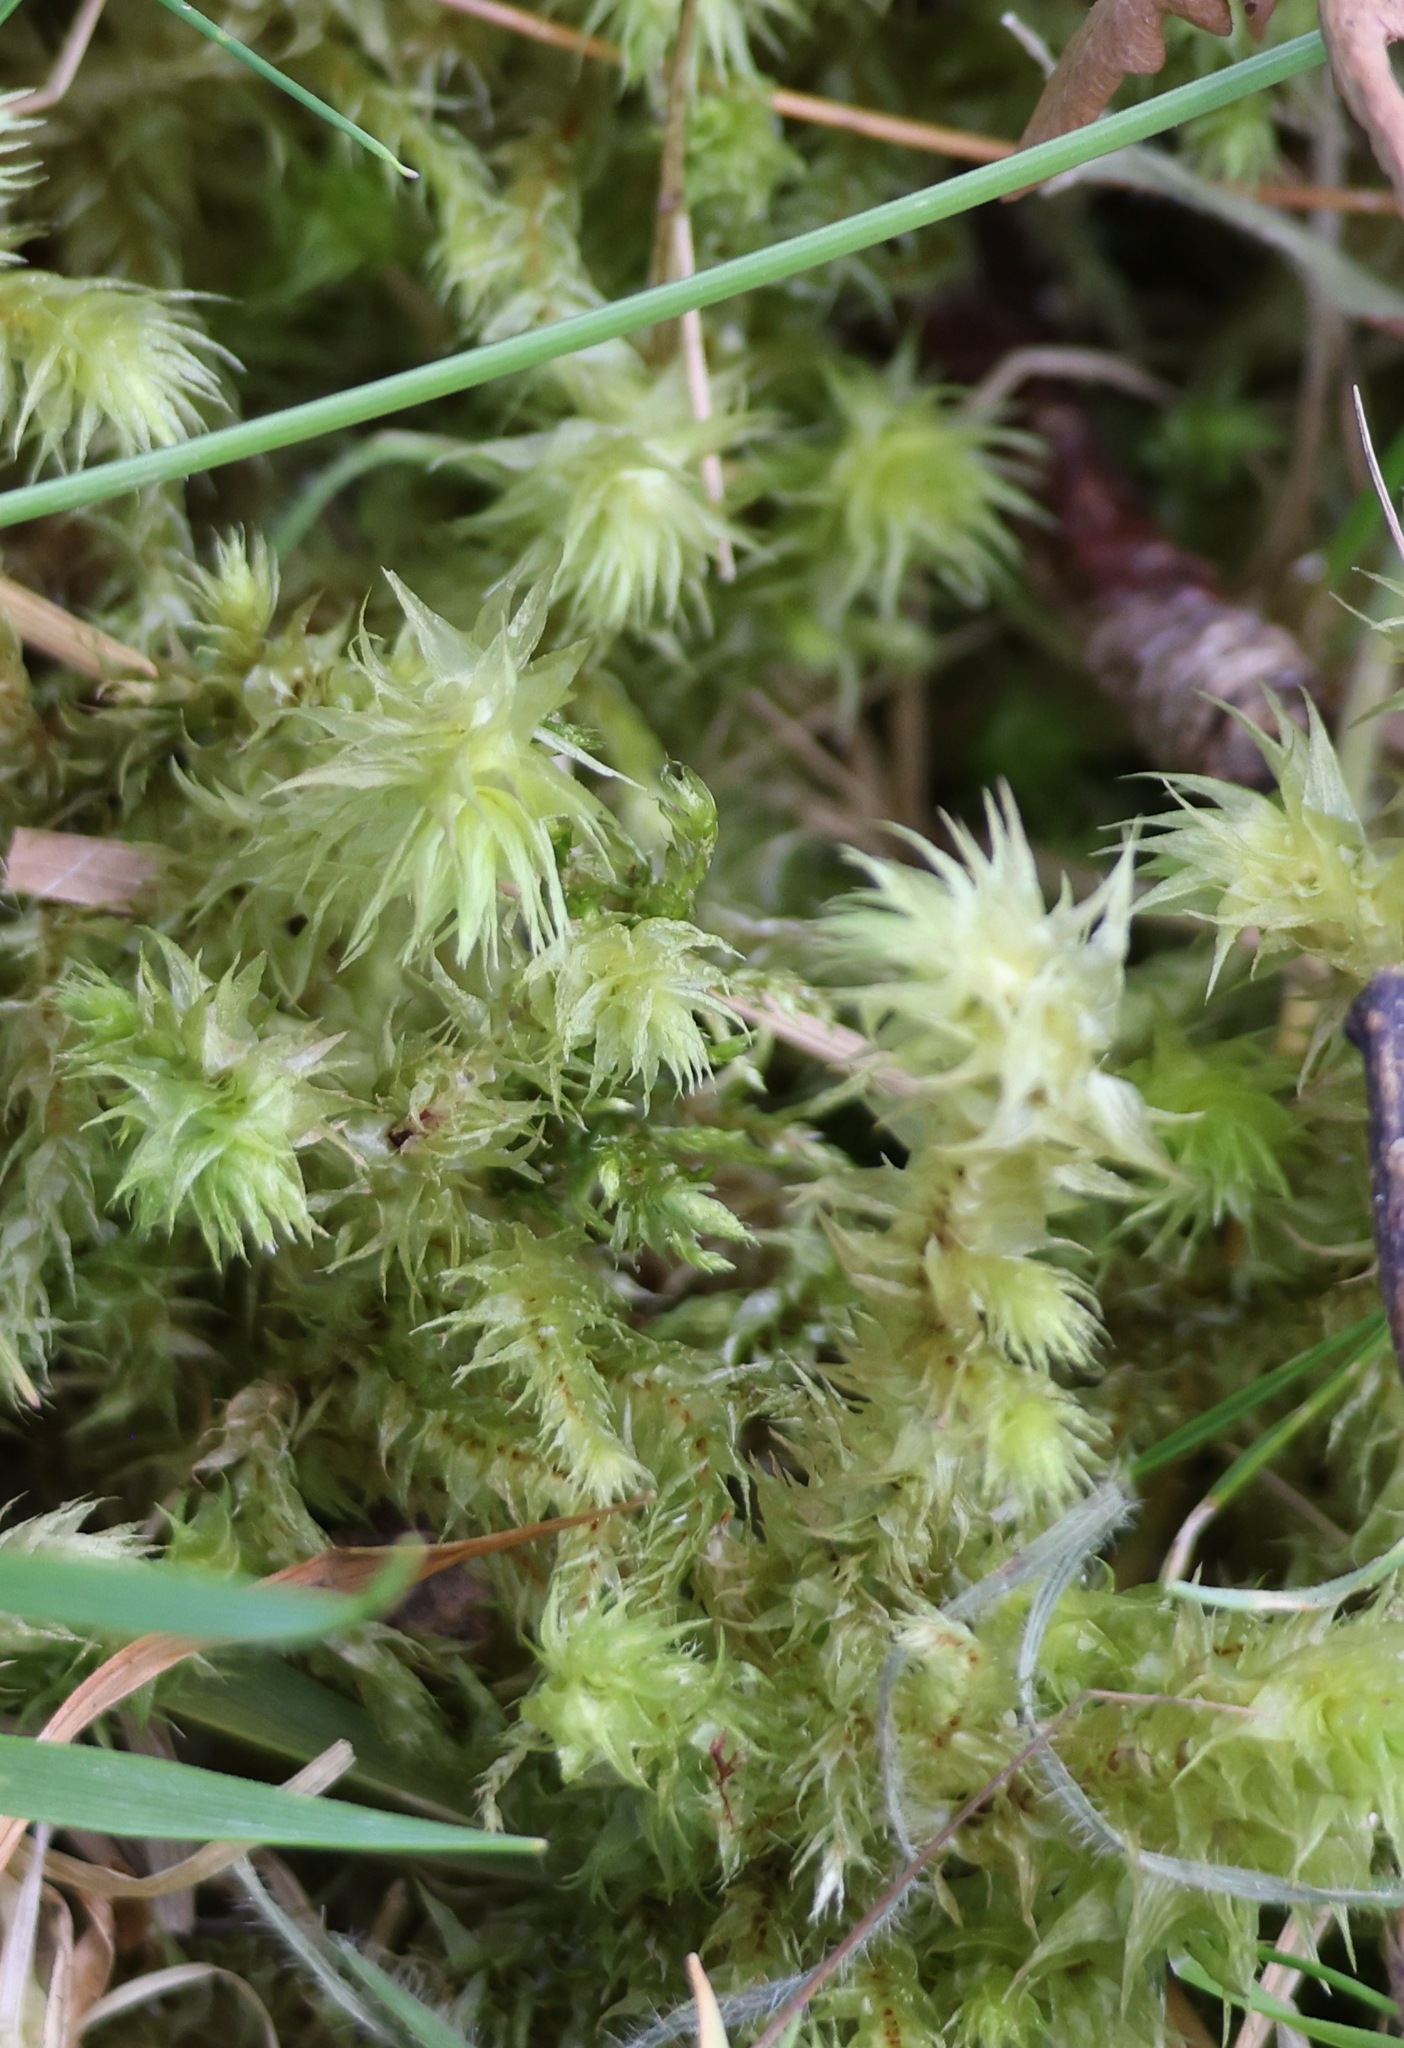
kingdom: Plantae
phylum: Bryophyta
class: Bryopsida
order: Hypnales
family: Hylocomiaceae
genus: Hylocomiadelphus
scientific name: Hylocomiadelphus triquetrus
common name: Rough goose neck moss
